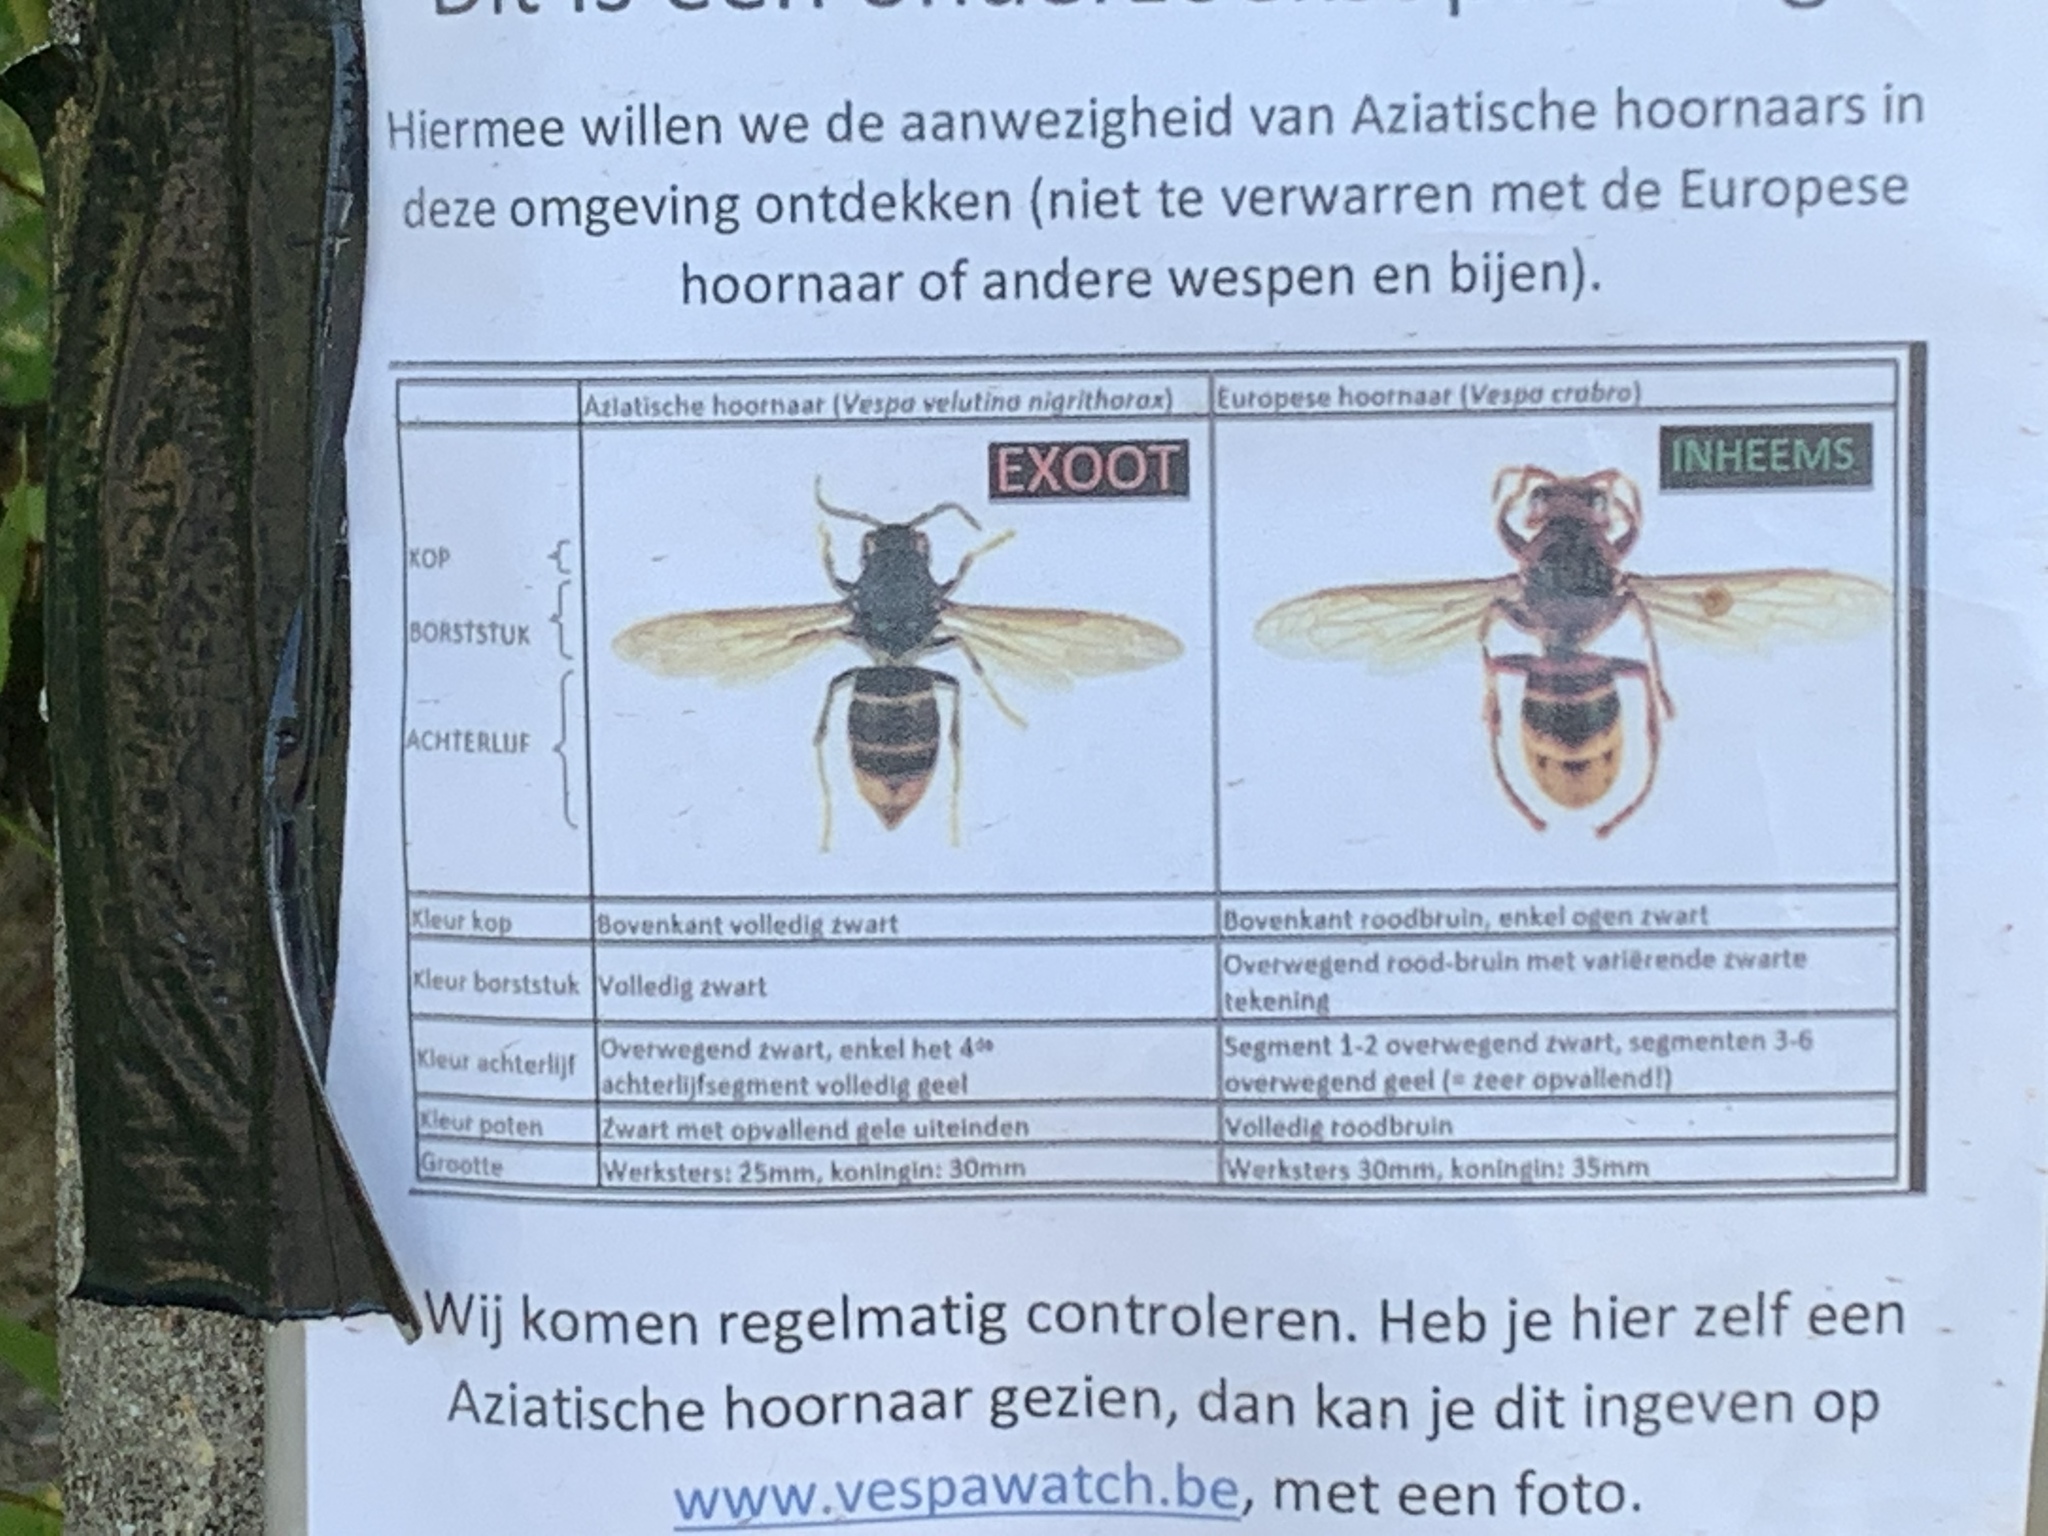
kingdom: Animalia
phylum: Arthropoda
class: Insecta
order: Hymenoptera
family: Vespidae
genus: Vespa
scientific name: Vespa crabro
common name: Hornet
